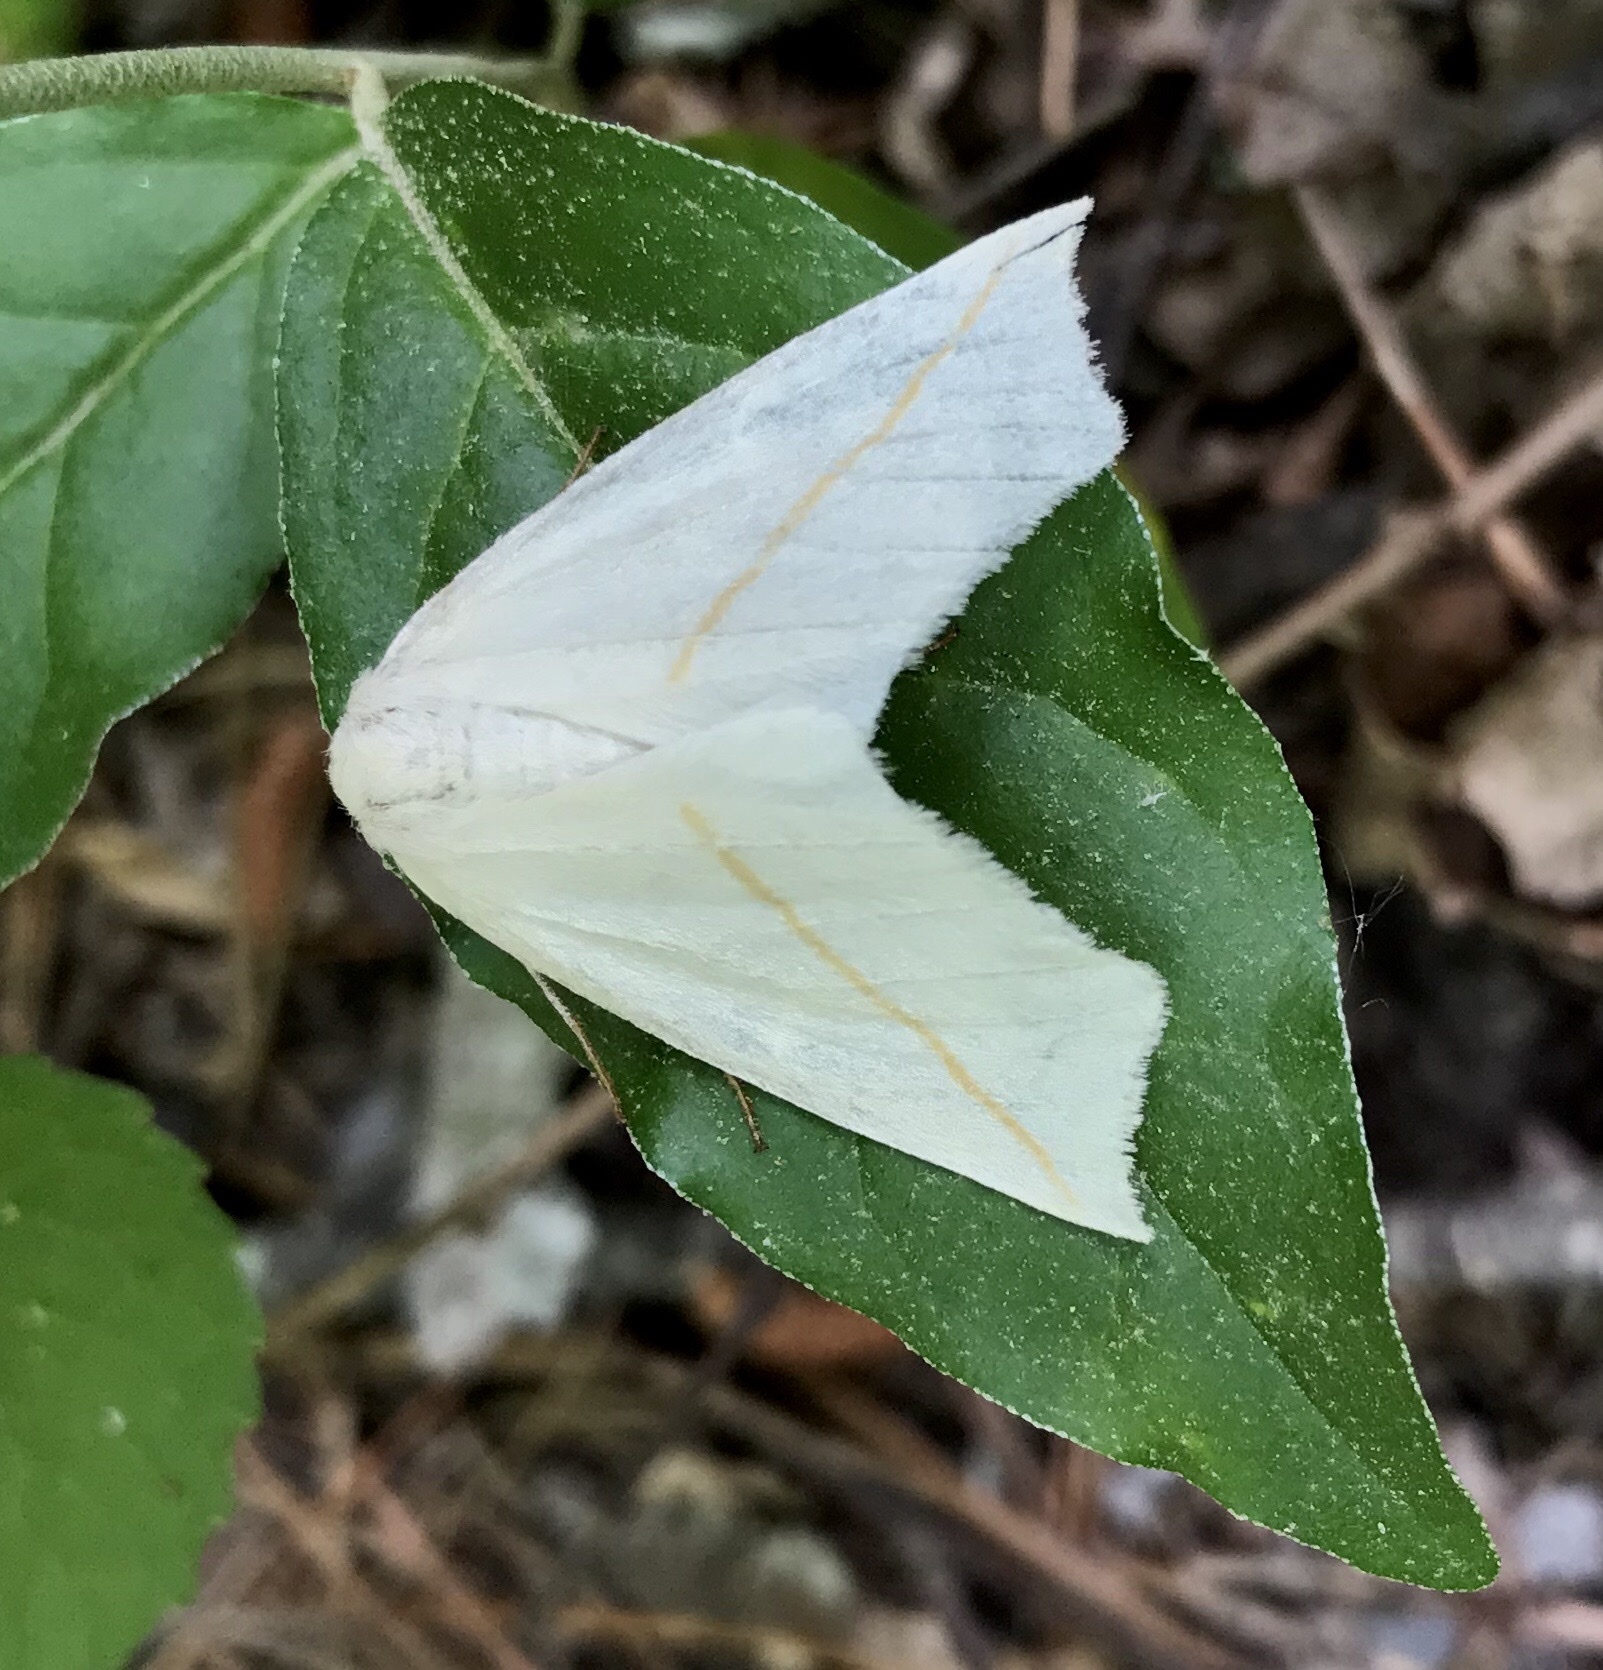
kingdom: Animalia
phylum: Arthropoda
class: Insecta
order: Lepidoptera
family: Geometridae
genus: Tetracis
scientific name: Tetracis cachexiata
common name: White slant-line
